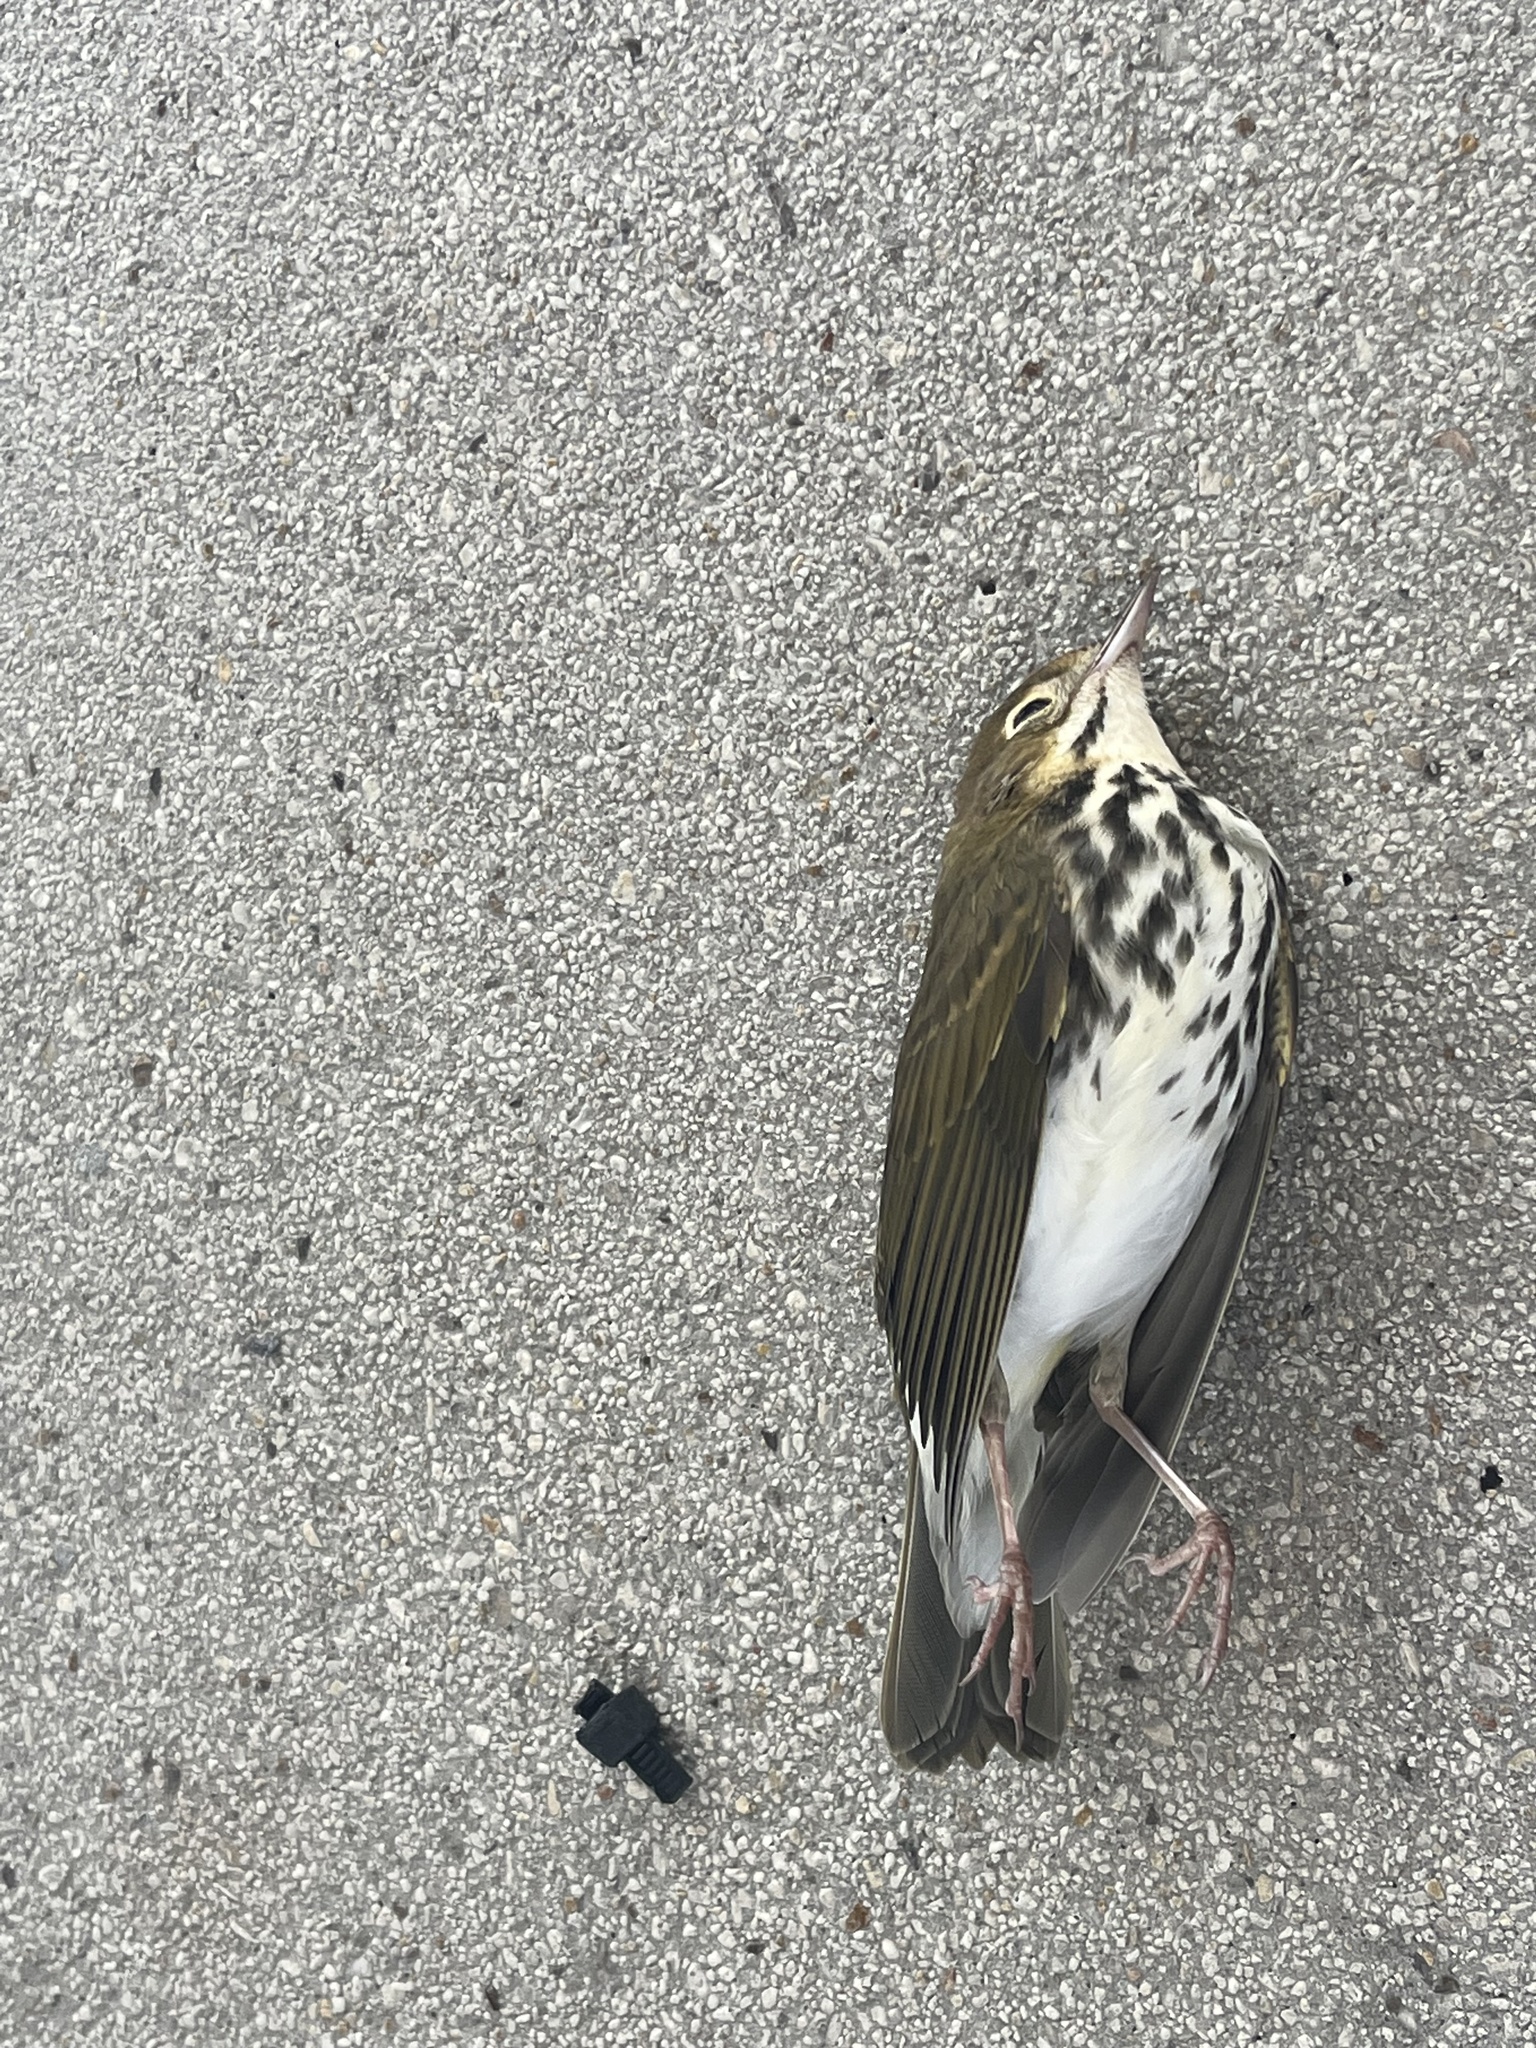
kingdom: Animalia
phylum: Chordata
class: Aves
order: Passeriformes
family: Parulidae
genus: Seiurus
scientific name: Seiurus aurocapilla
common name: Ovenbird
